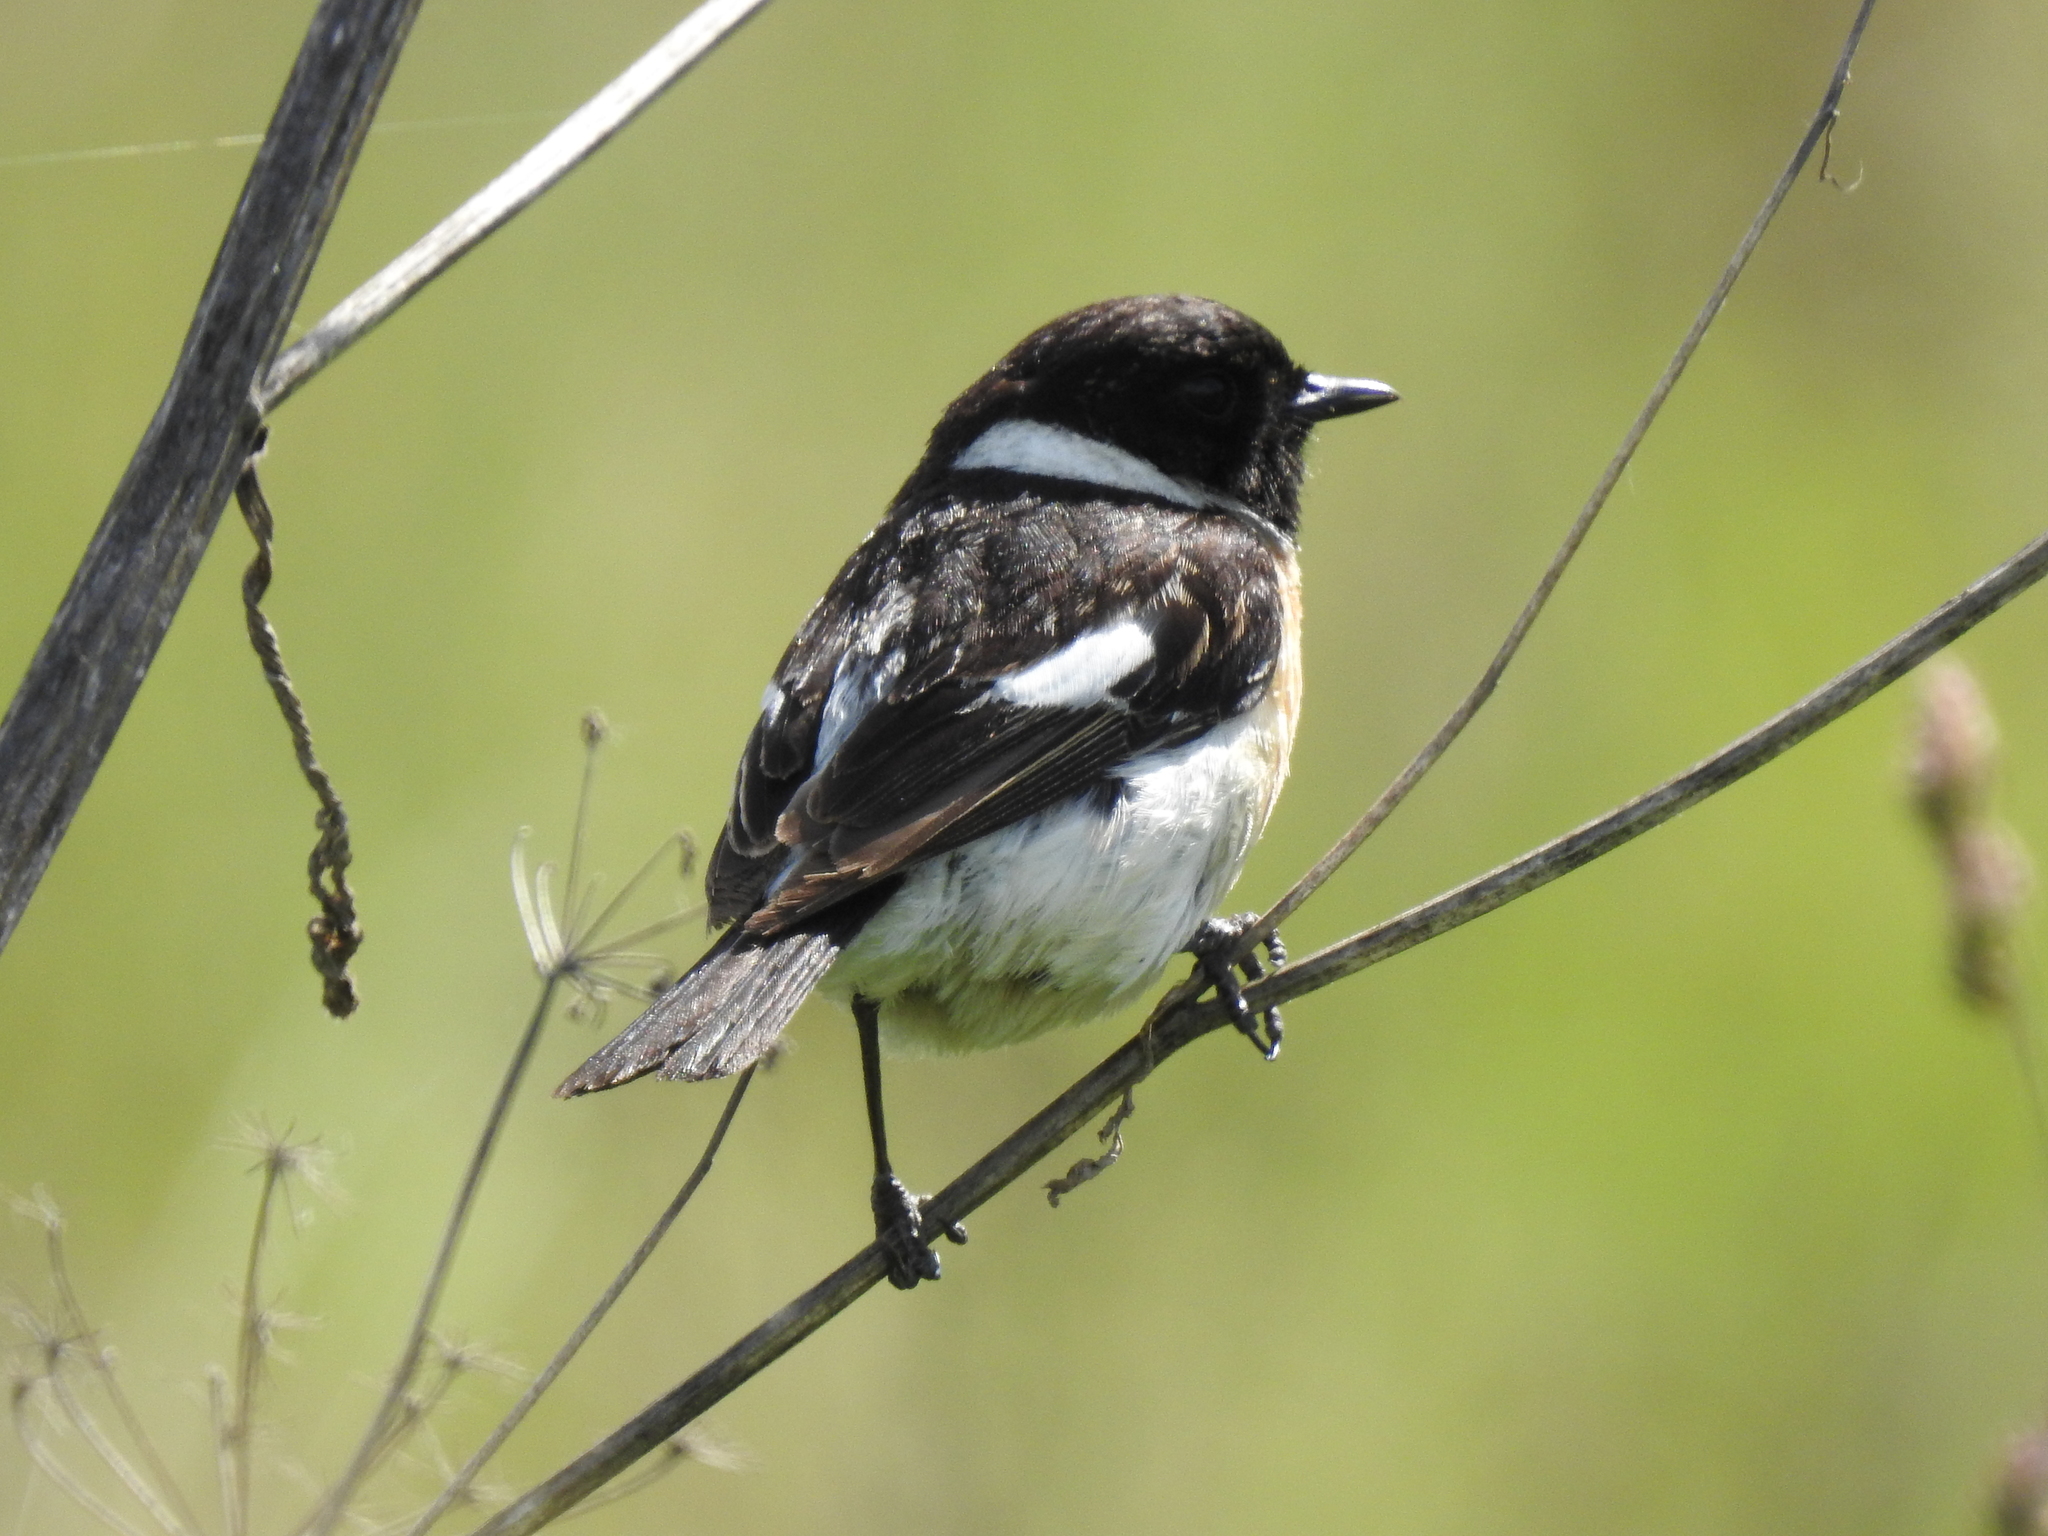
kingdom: Animalia
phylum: Chordata
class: Aves
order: Passeriformes
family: Muscicapidae
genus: Saxicola
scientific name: Saxicola maurus
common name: Siberian stonechat
